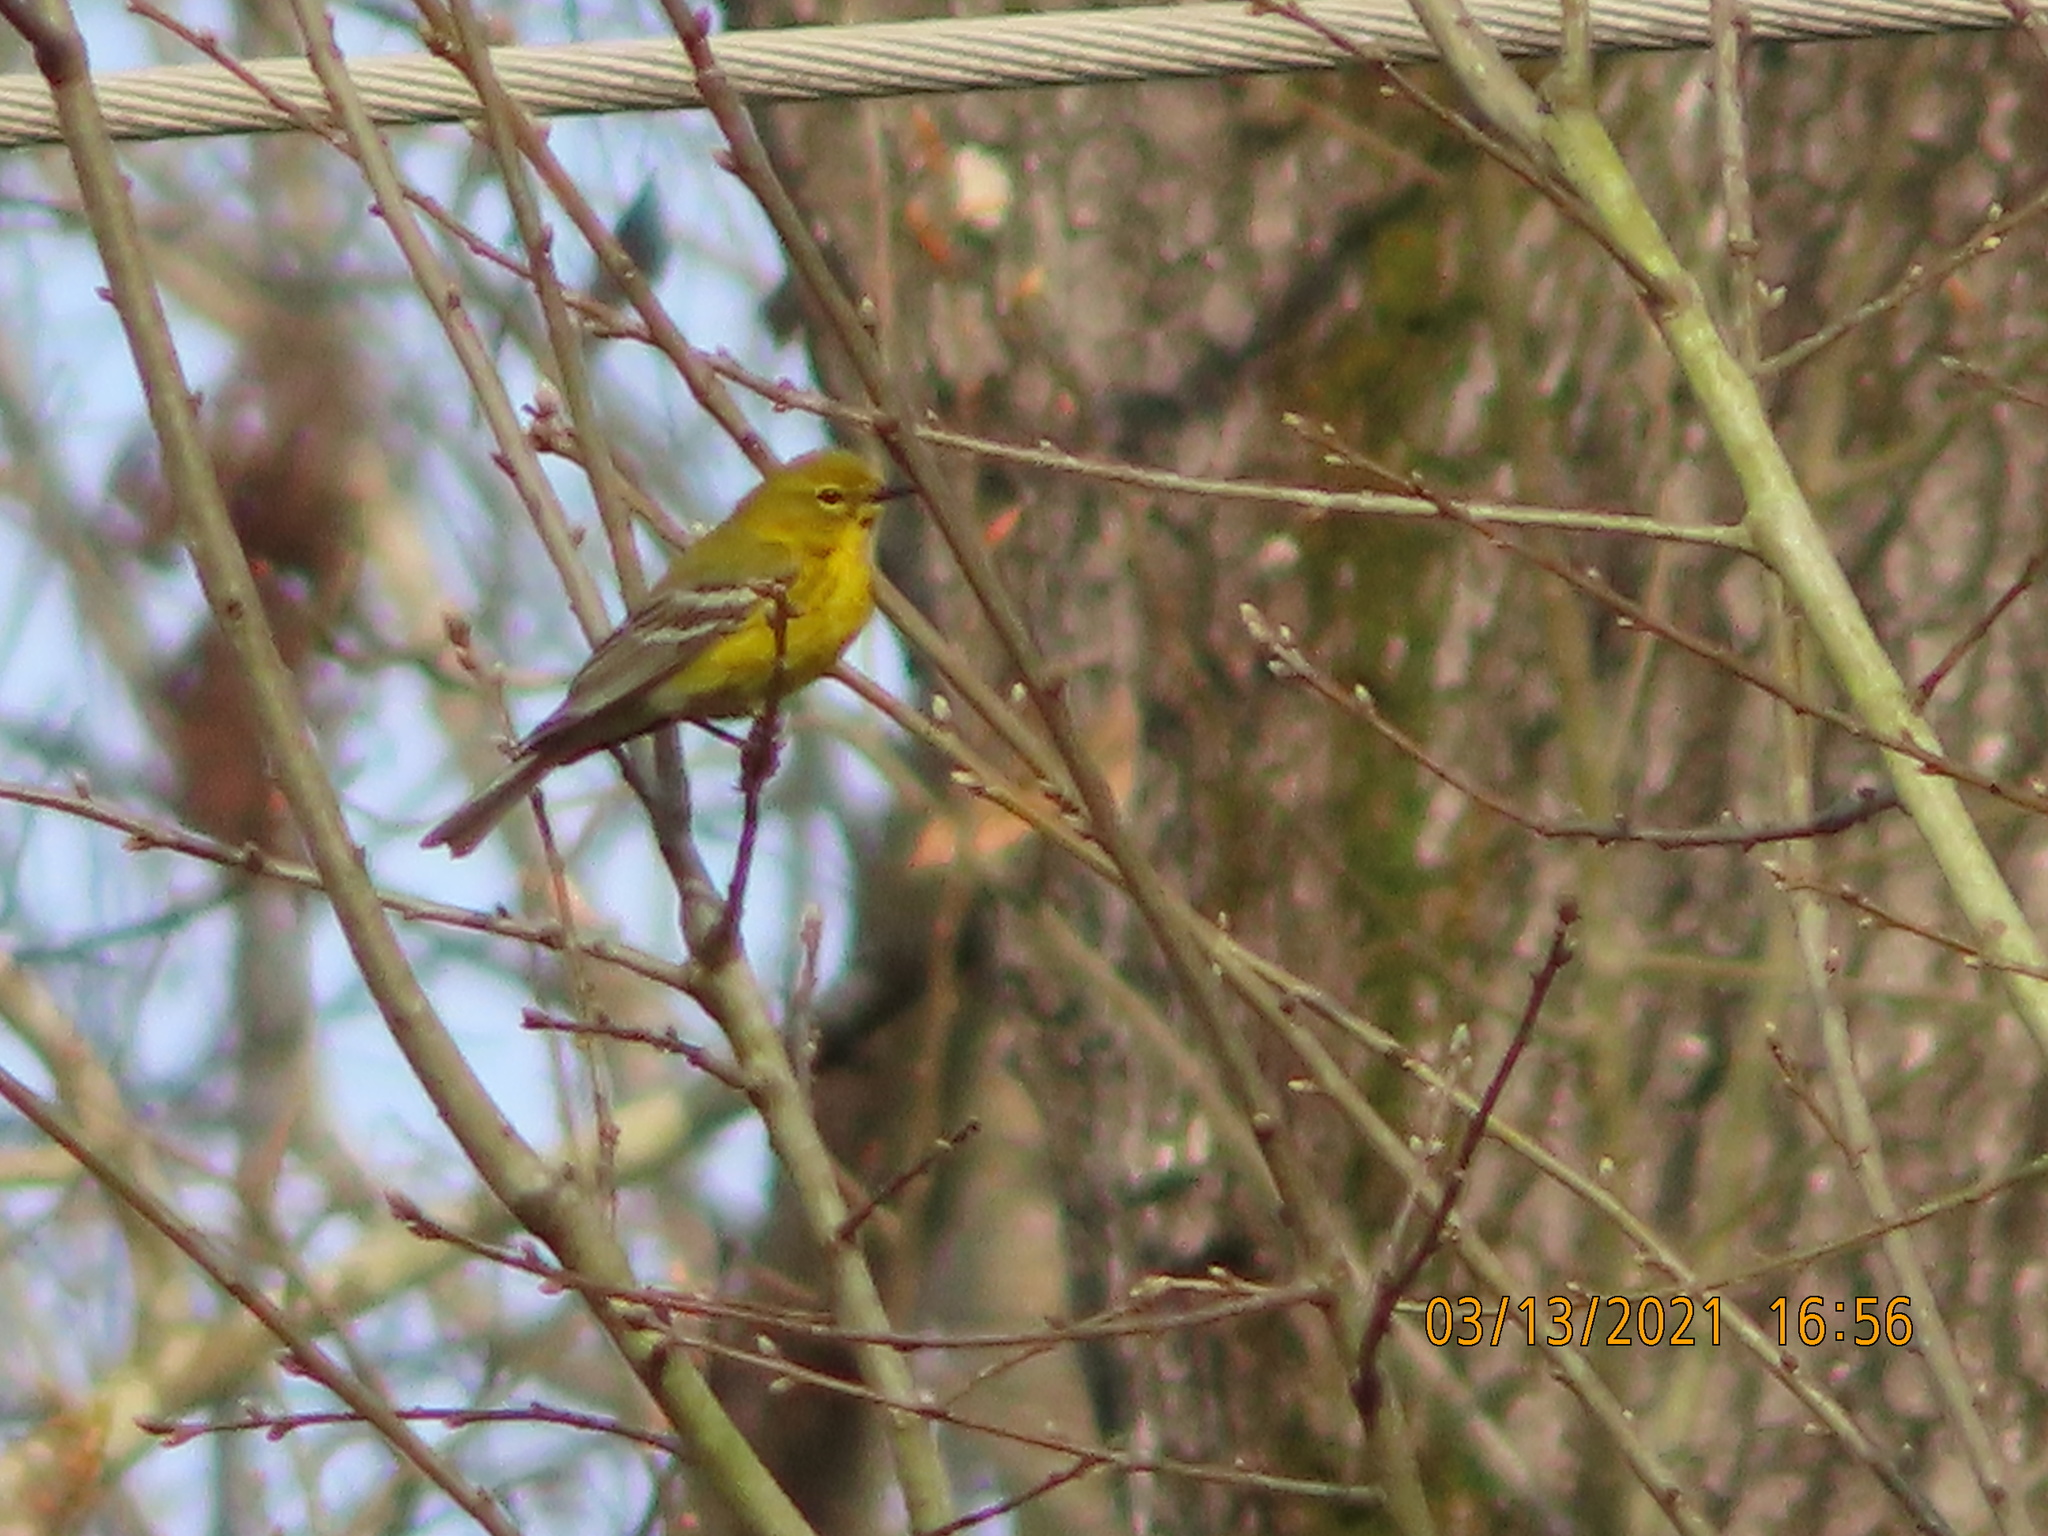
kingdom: Animalia
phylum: Chordata
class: Aves
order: Passeriformes
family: Parulidae
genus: Setophaga
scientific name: Setophaga pinus
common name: Pine warbler
